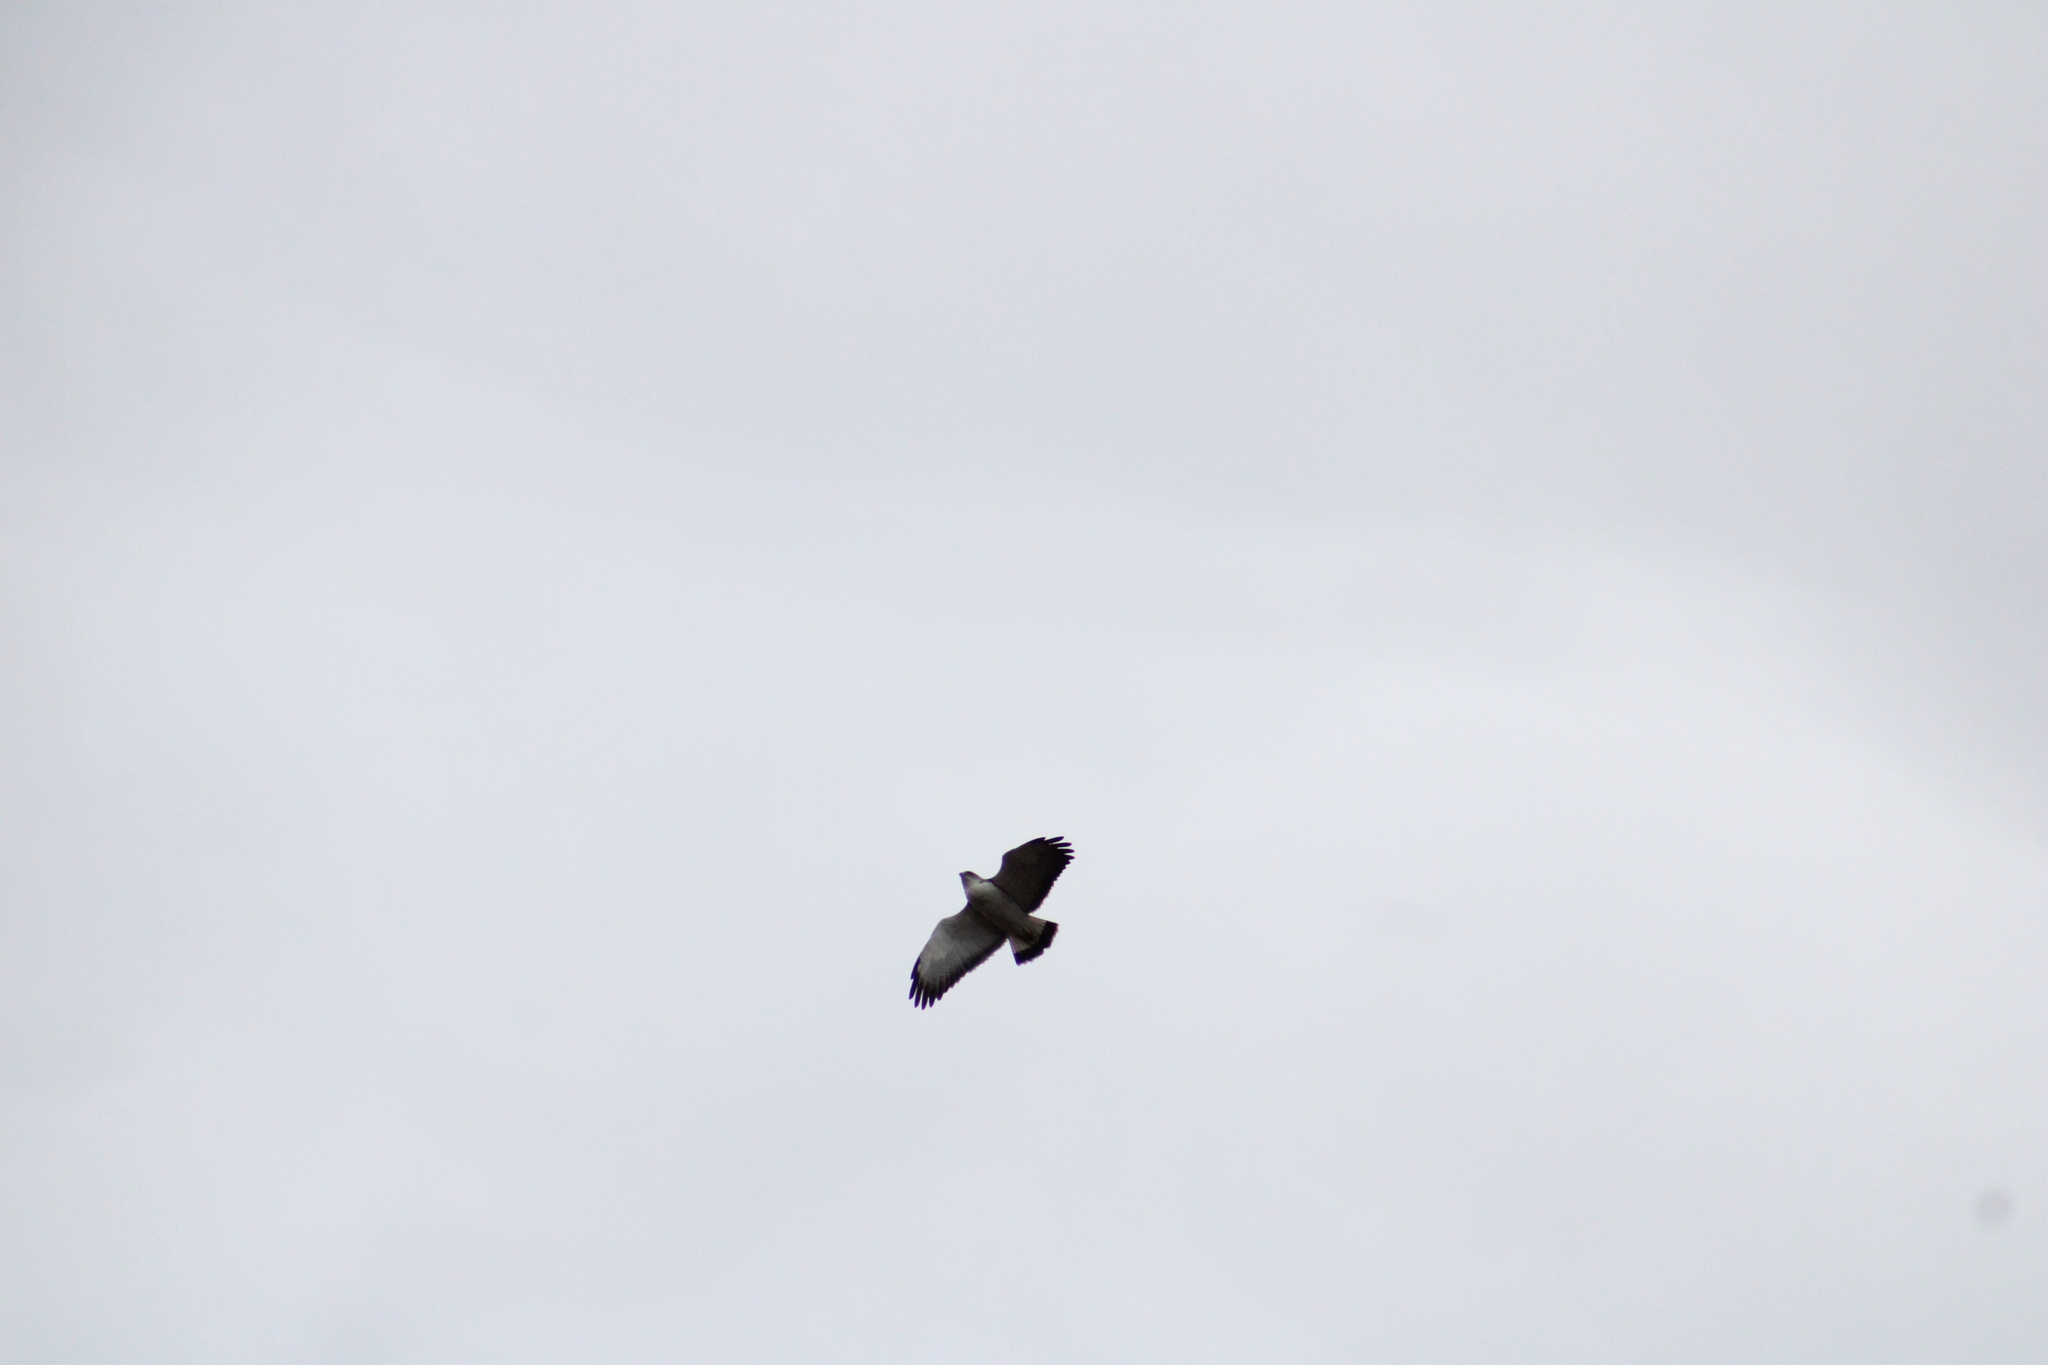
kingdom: Animalia
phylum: Chordata
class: Aves
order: Accipitriformes
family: Accipitridae
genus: Buteo
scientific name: Buteo polyosoma
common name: Variable hawk
